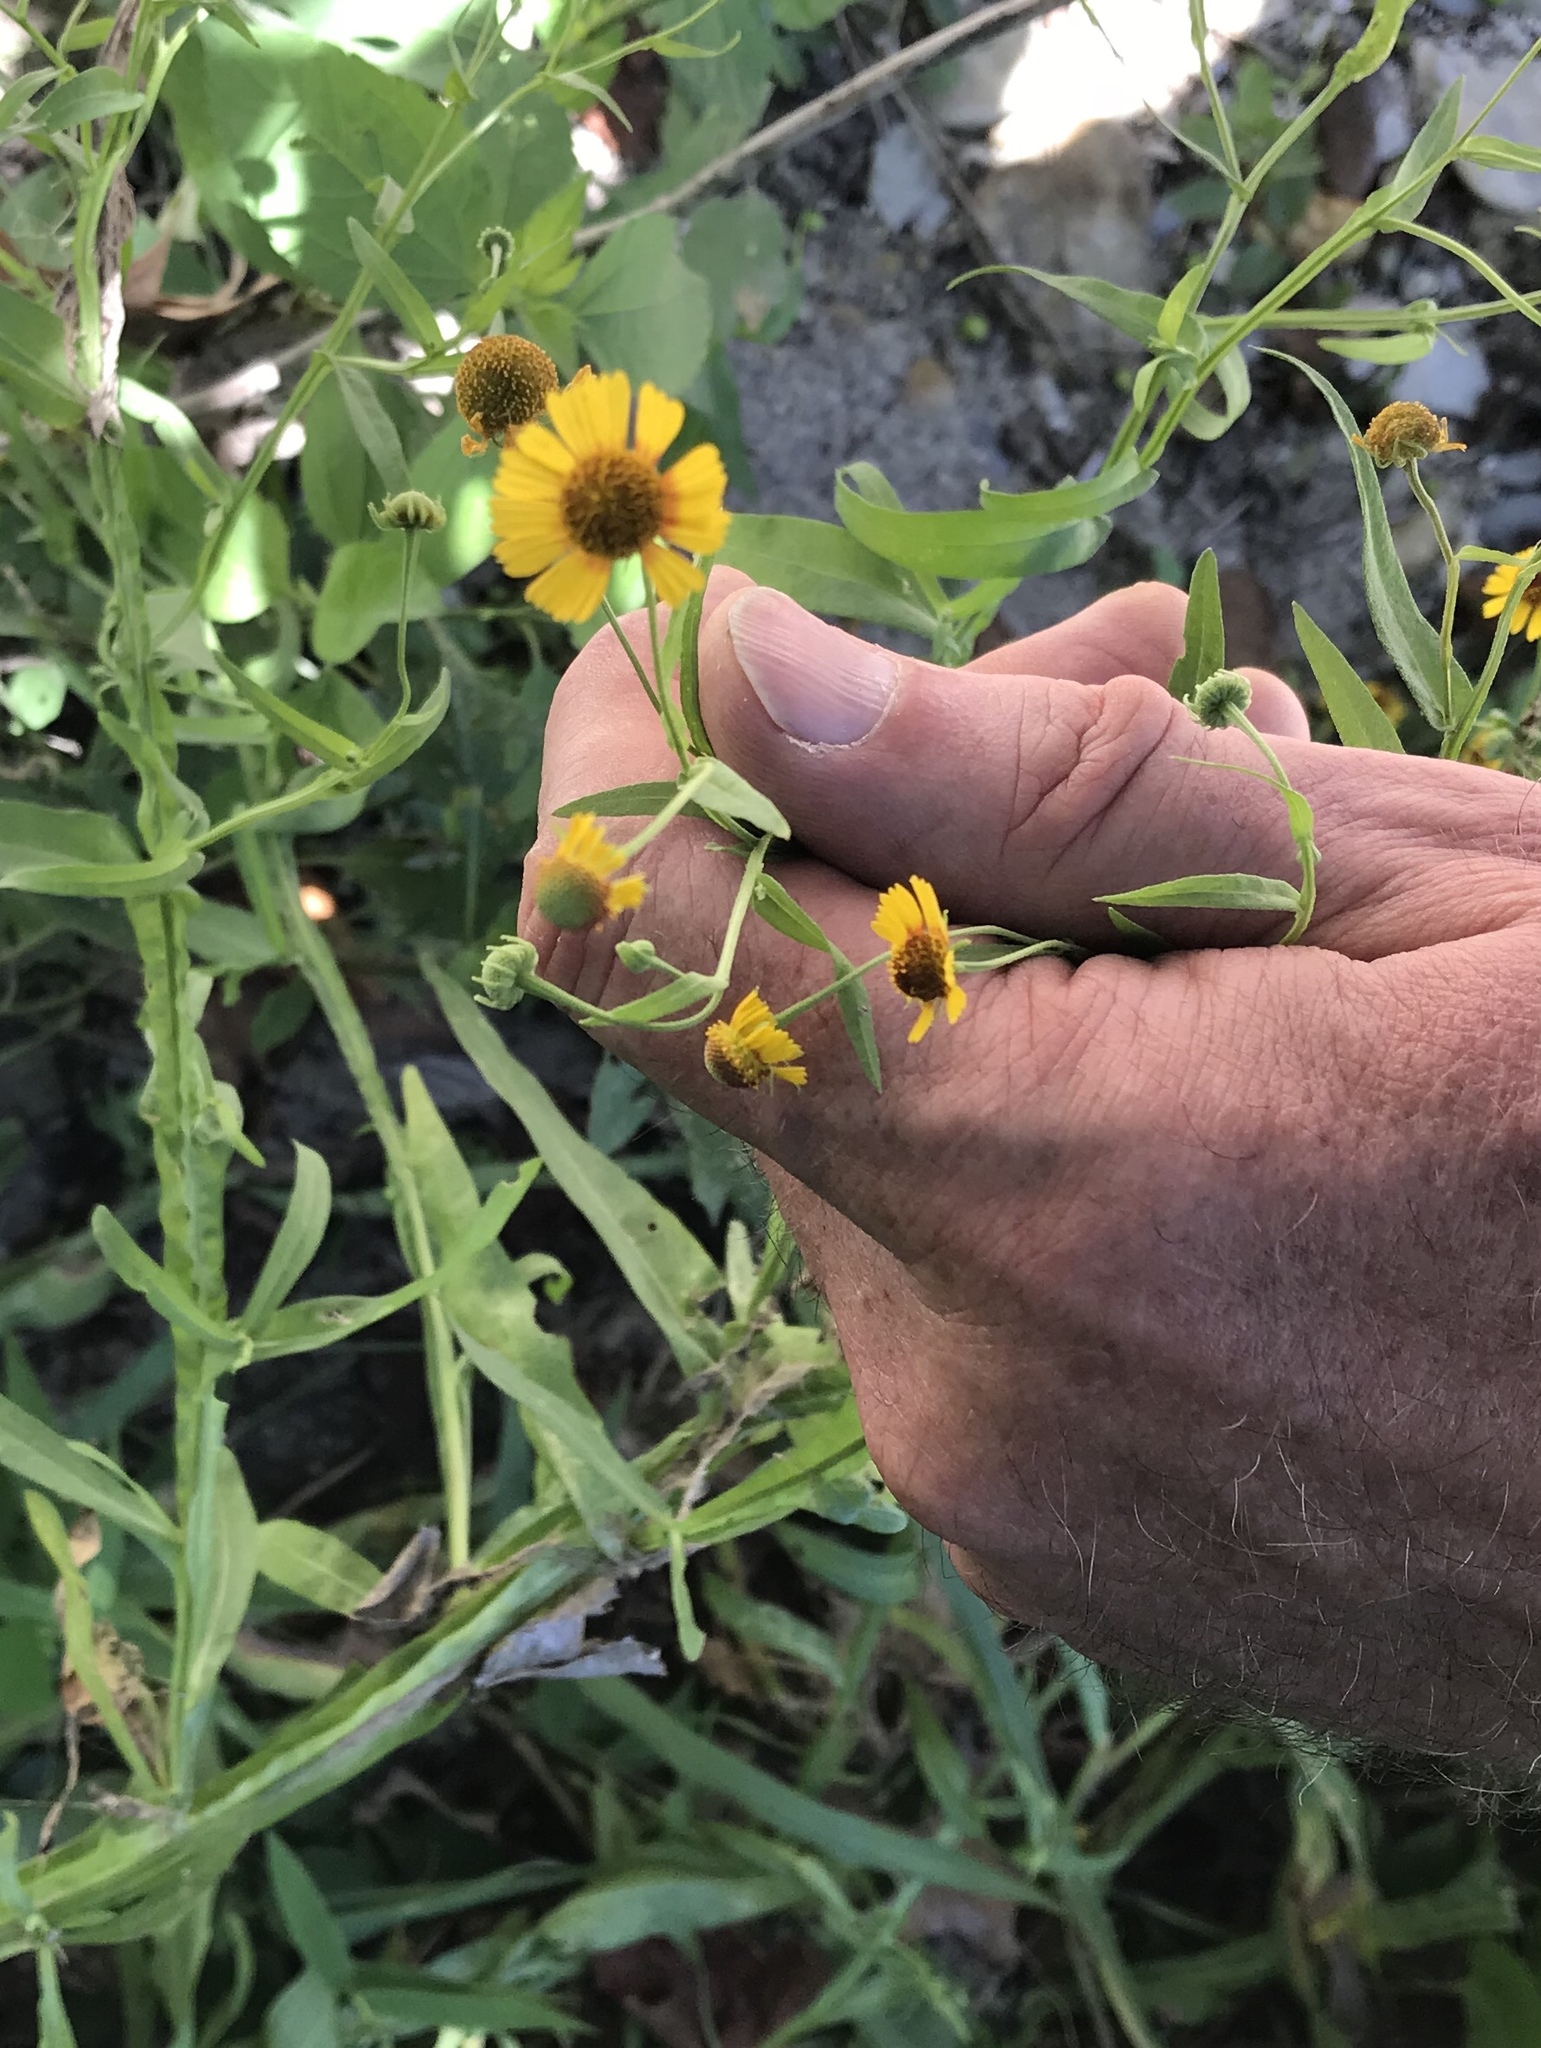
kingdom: Plantae
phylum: Tracheophyta
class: Magnoliopsida
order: Asterales
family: Asteraceae
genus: Helenium
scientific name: Helenium elegans
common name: Pretty sneezeweed
